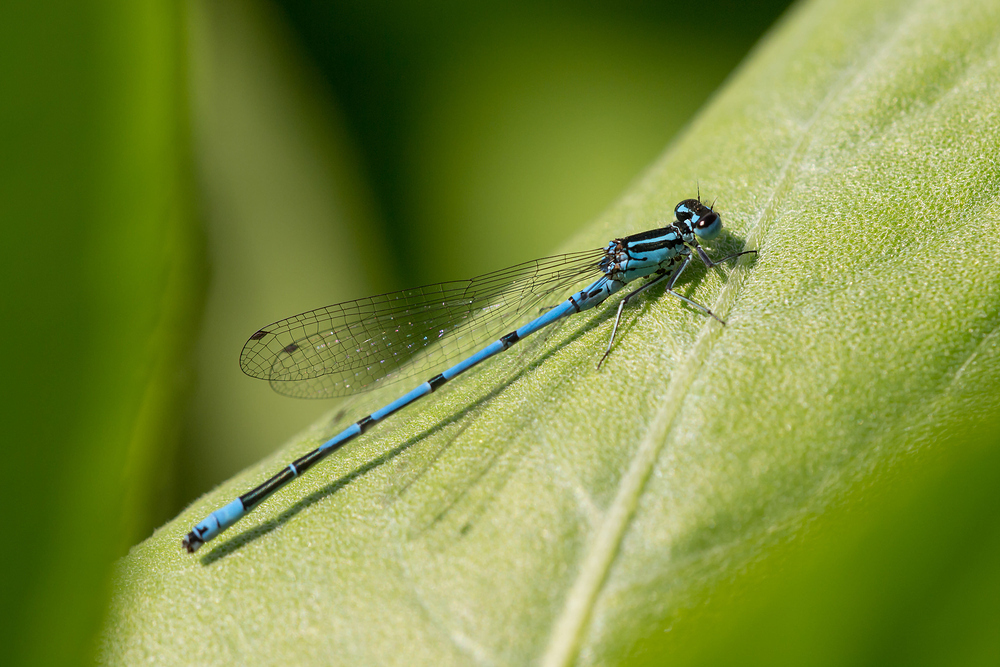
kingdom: Animalia
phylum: Arthropoda
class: Insecta
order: Odonata
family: Coenagrionidae
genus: Coenagrion
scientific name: Coenagrion puella
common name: Azure damselfly
